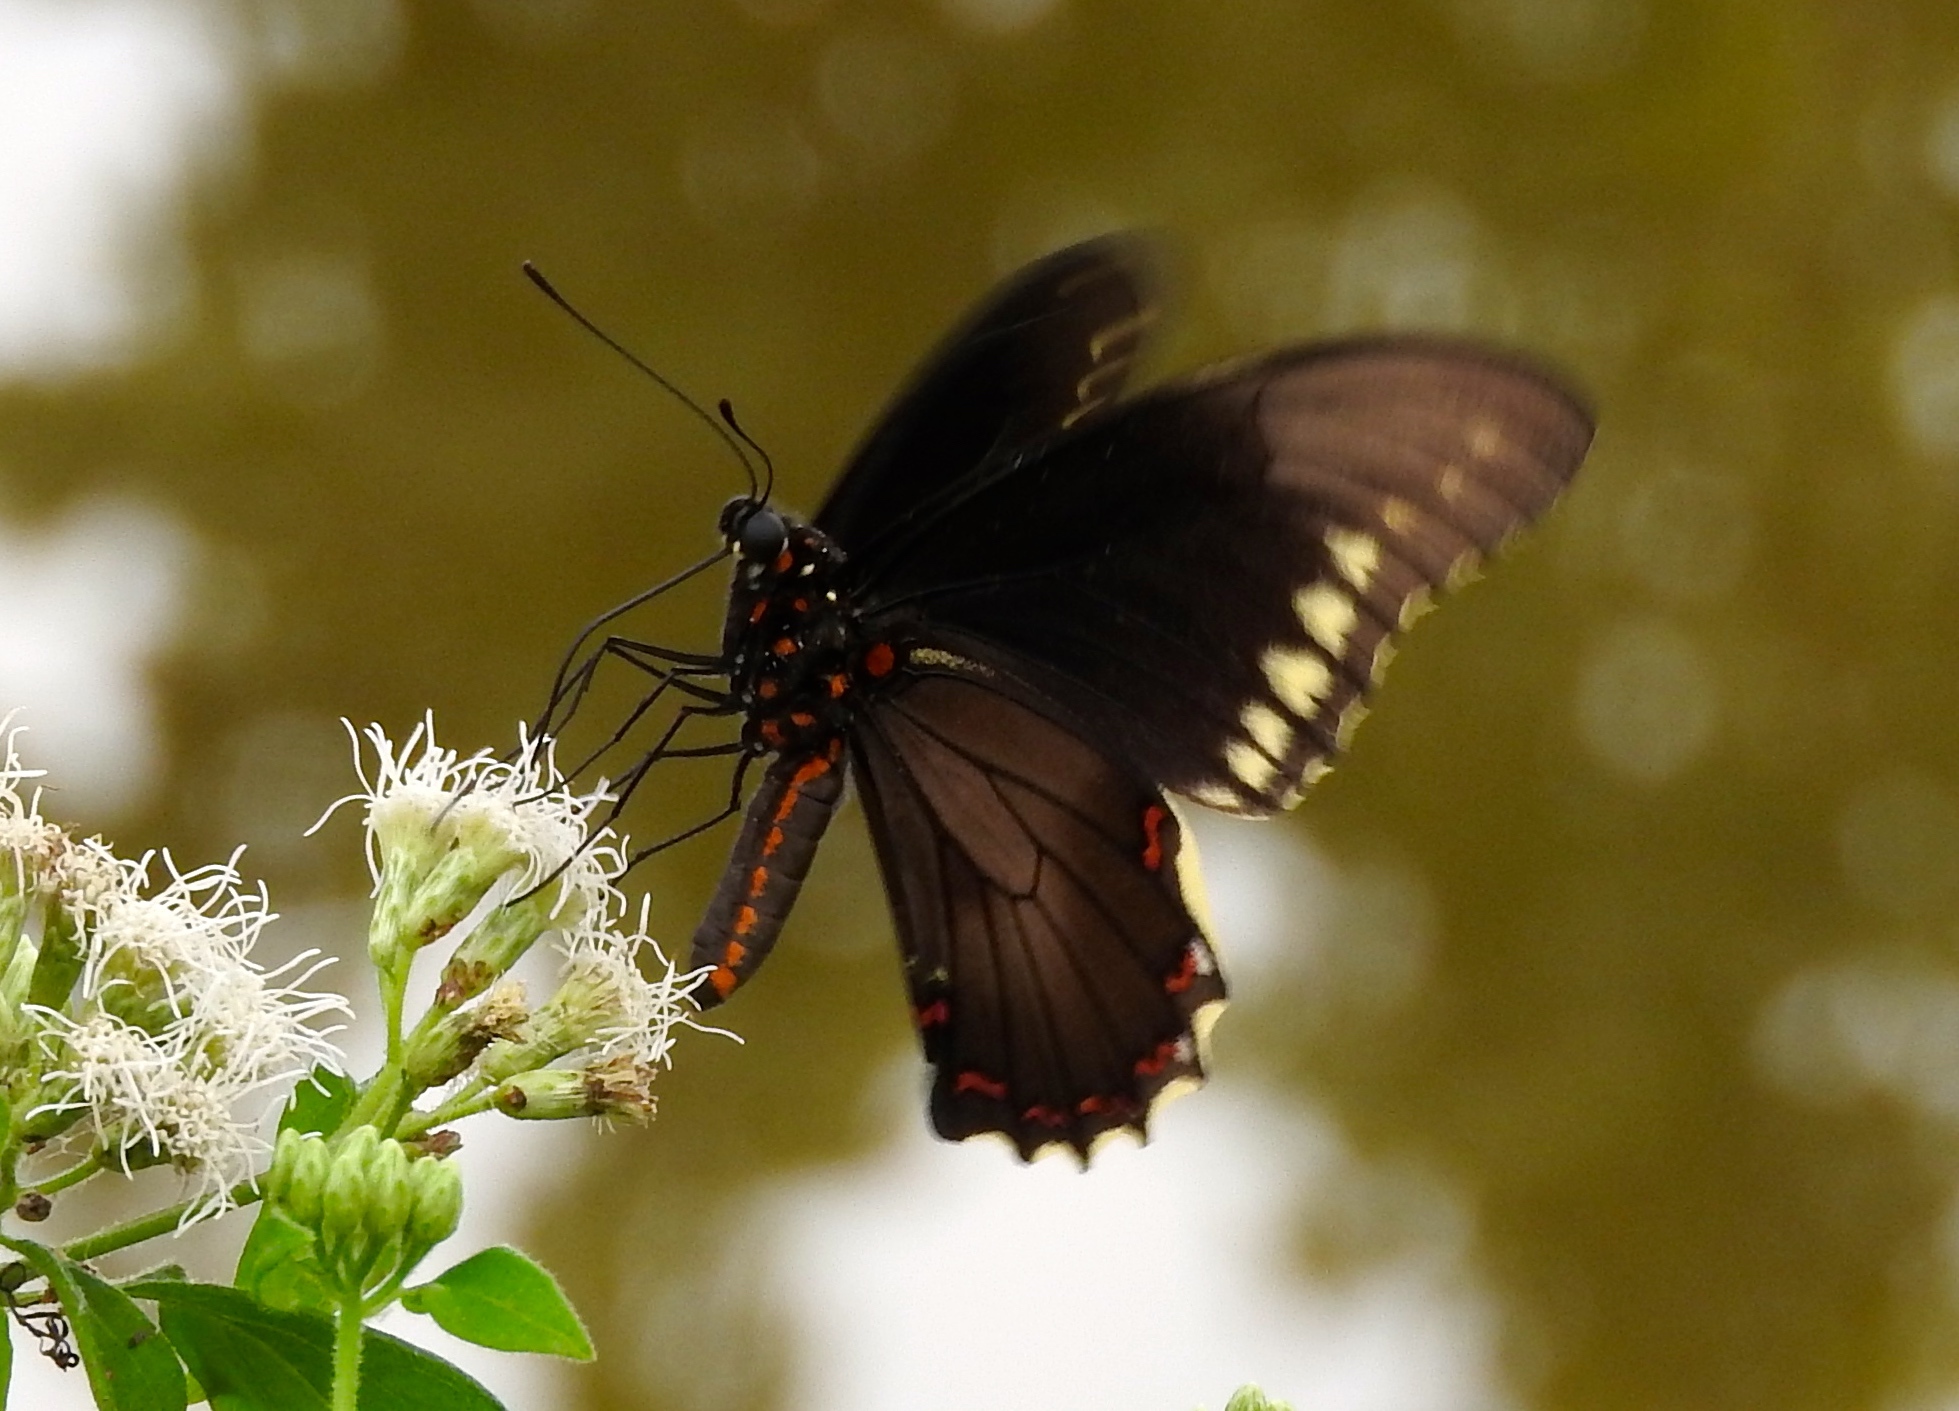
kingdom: Animalia
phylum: Arthropoda
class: Insecta
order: Lepidoptera
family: Papilionidae
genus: Battus
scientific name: Battus polydamas
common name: Polydamas swallowtail
